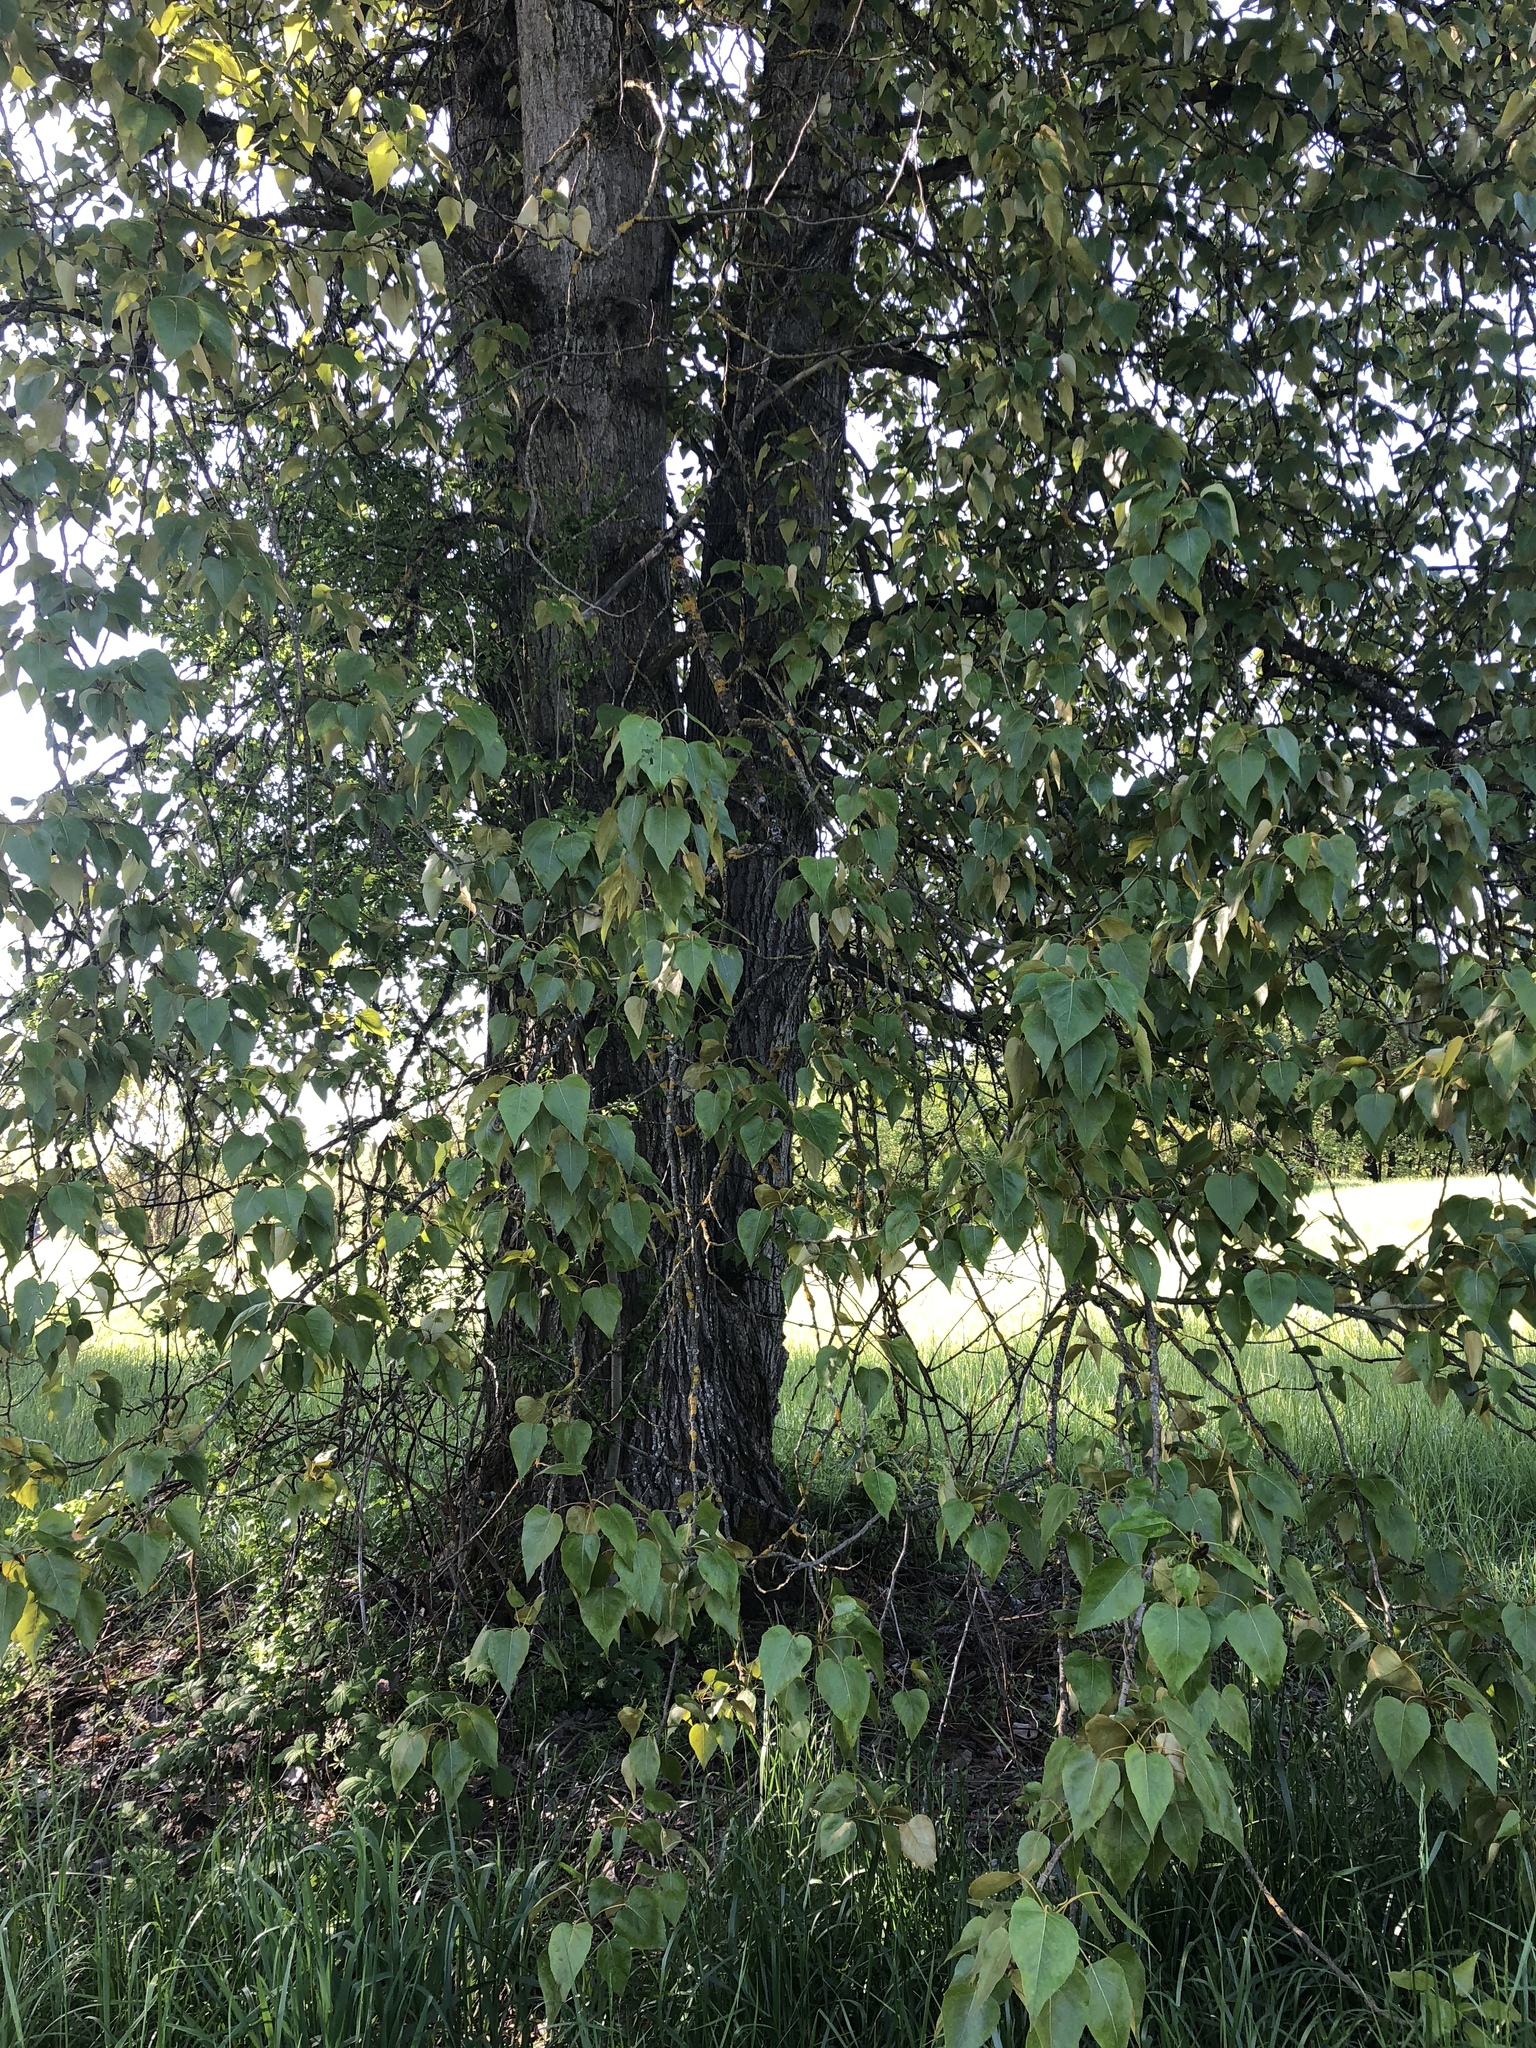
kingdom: Plantae
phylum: Tracheophyta
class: Magnoliopsida
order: Malpighiales
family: Salicaceae
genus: Populus
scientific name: Populus trichocarpa
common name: Black cottonwood
